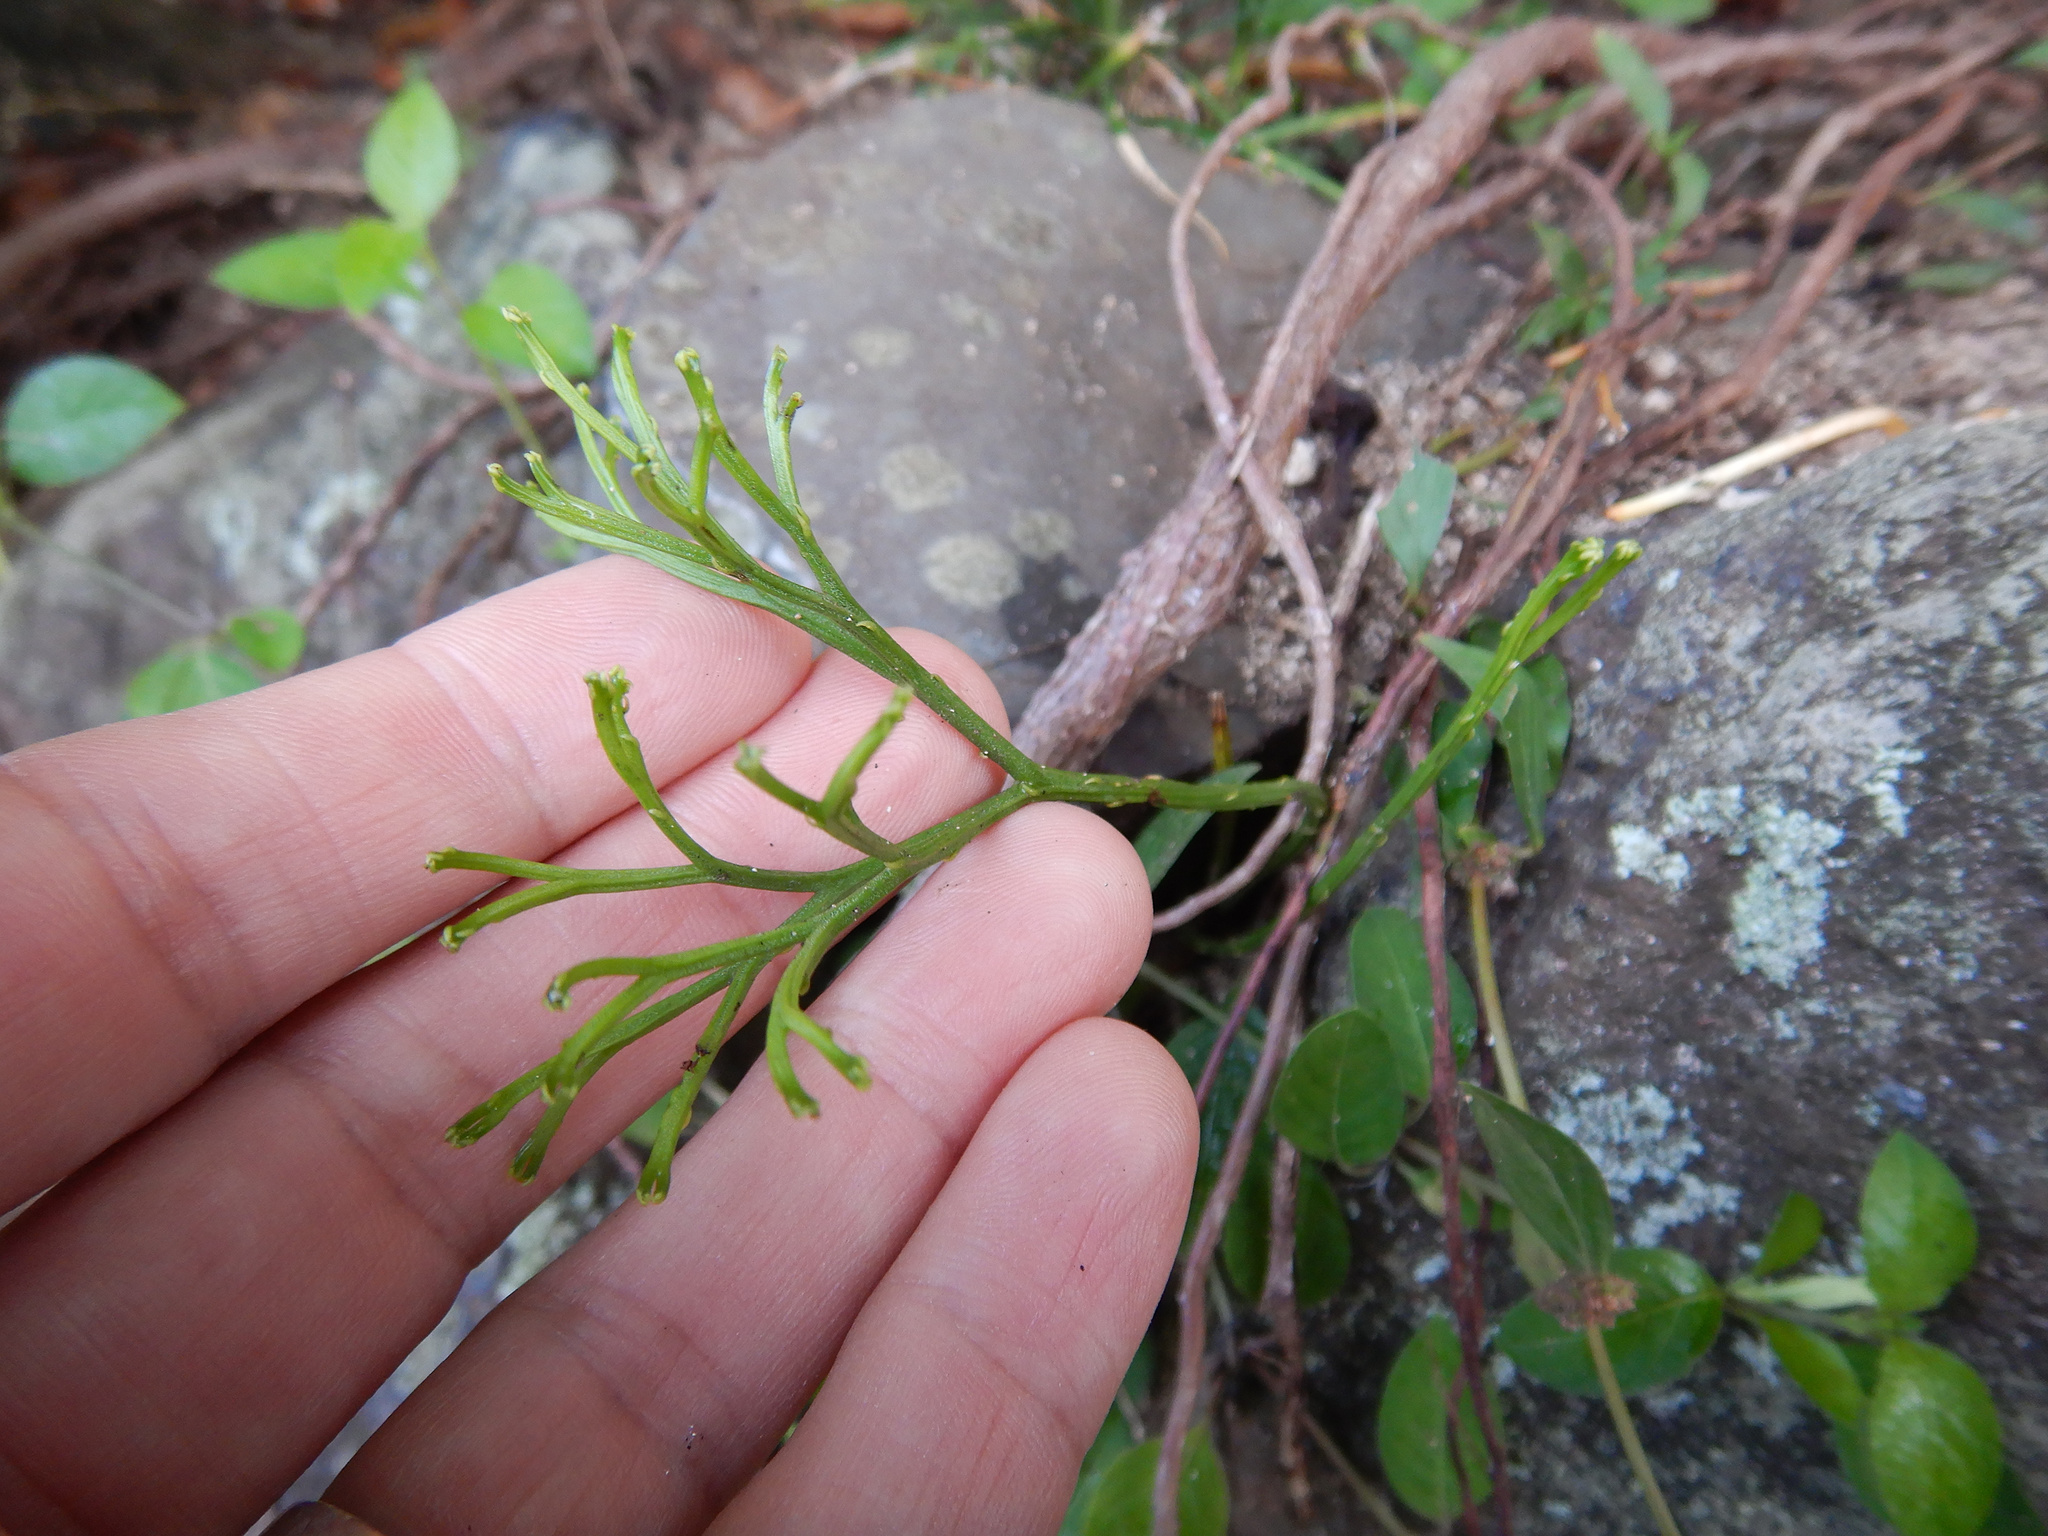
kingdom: Plantae
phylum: Tracheophyta
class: Polypodiopsida
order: Psilotales
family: Psilotaceae
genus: Psilotum
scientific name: Psilotum nudum
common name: Skeleton fork fern
